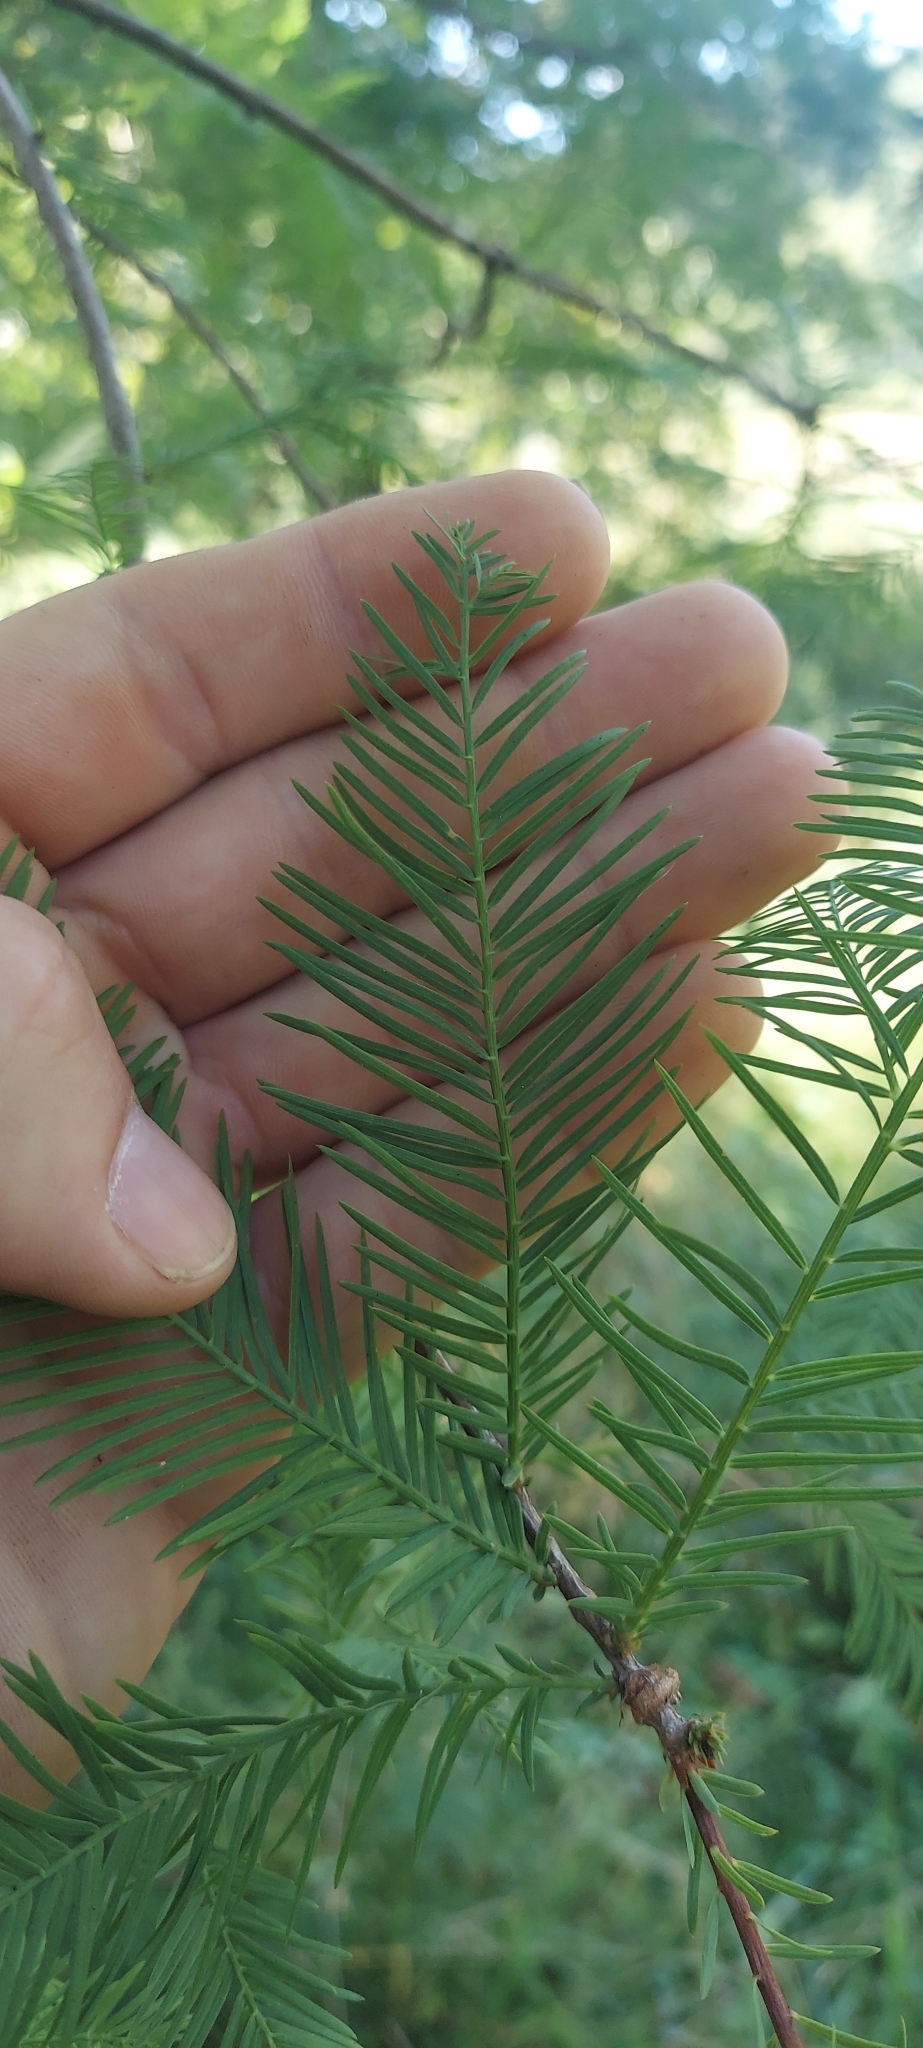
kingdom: Plantae
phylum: Tracheophyta
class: Pinopsida
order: Pinales
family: Cupressaceae
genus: Taxodium
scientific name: Taxodium distichum
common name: Bald cypress
